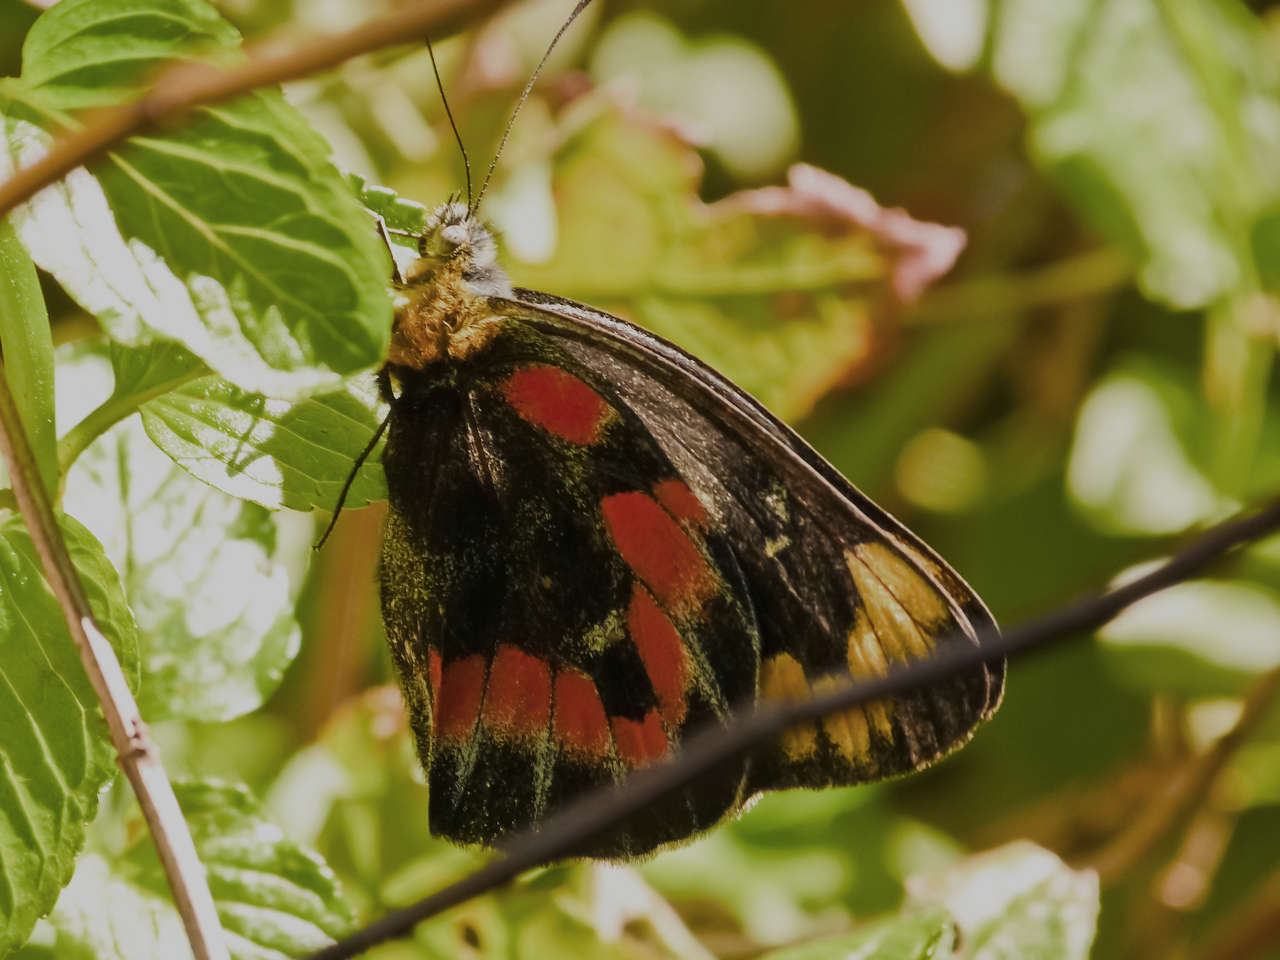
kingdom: Animalia
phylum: Arthropoda
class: Insecta
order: Lepidoptera
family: Pieridae
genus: Delias
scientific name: Delias harpalyce
